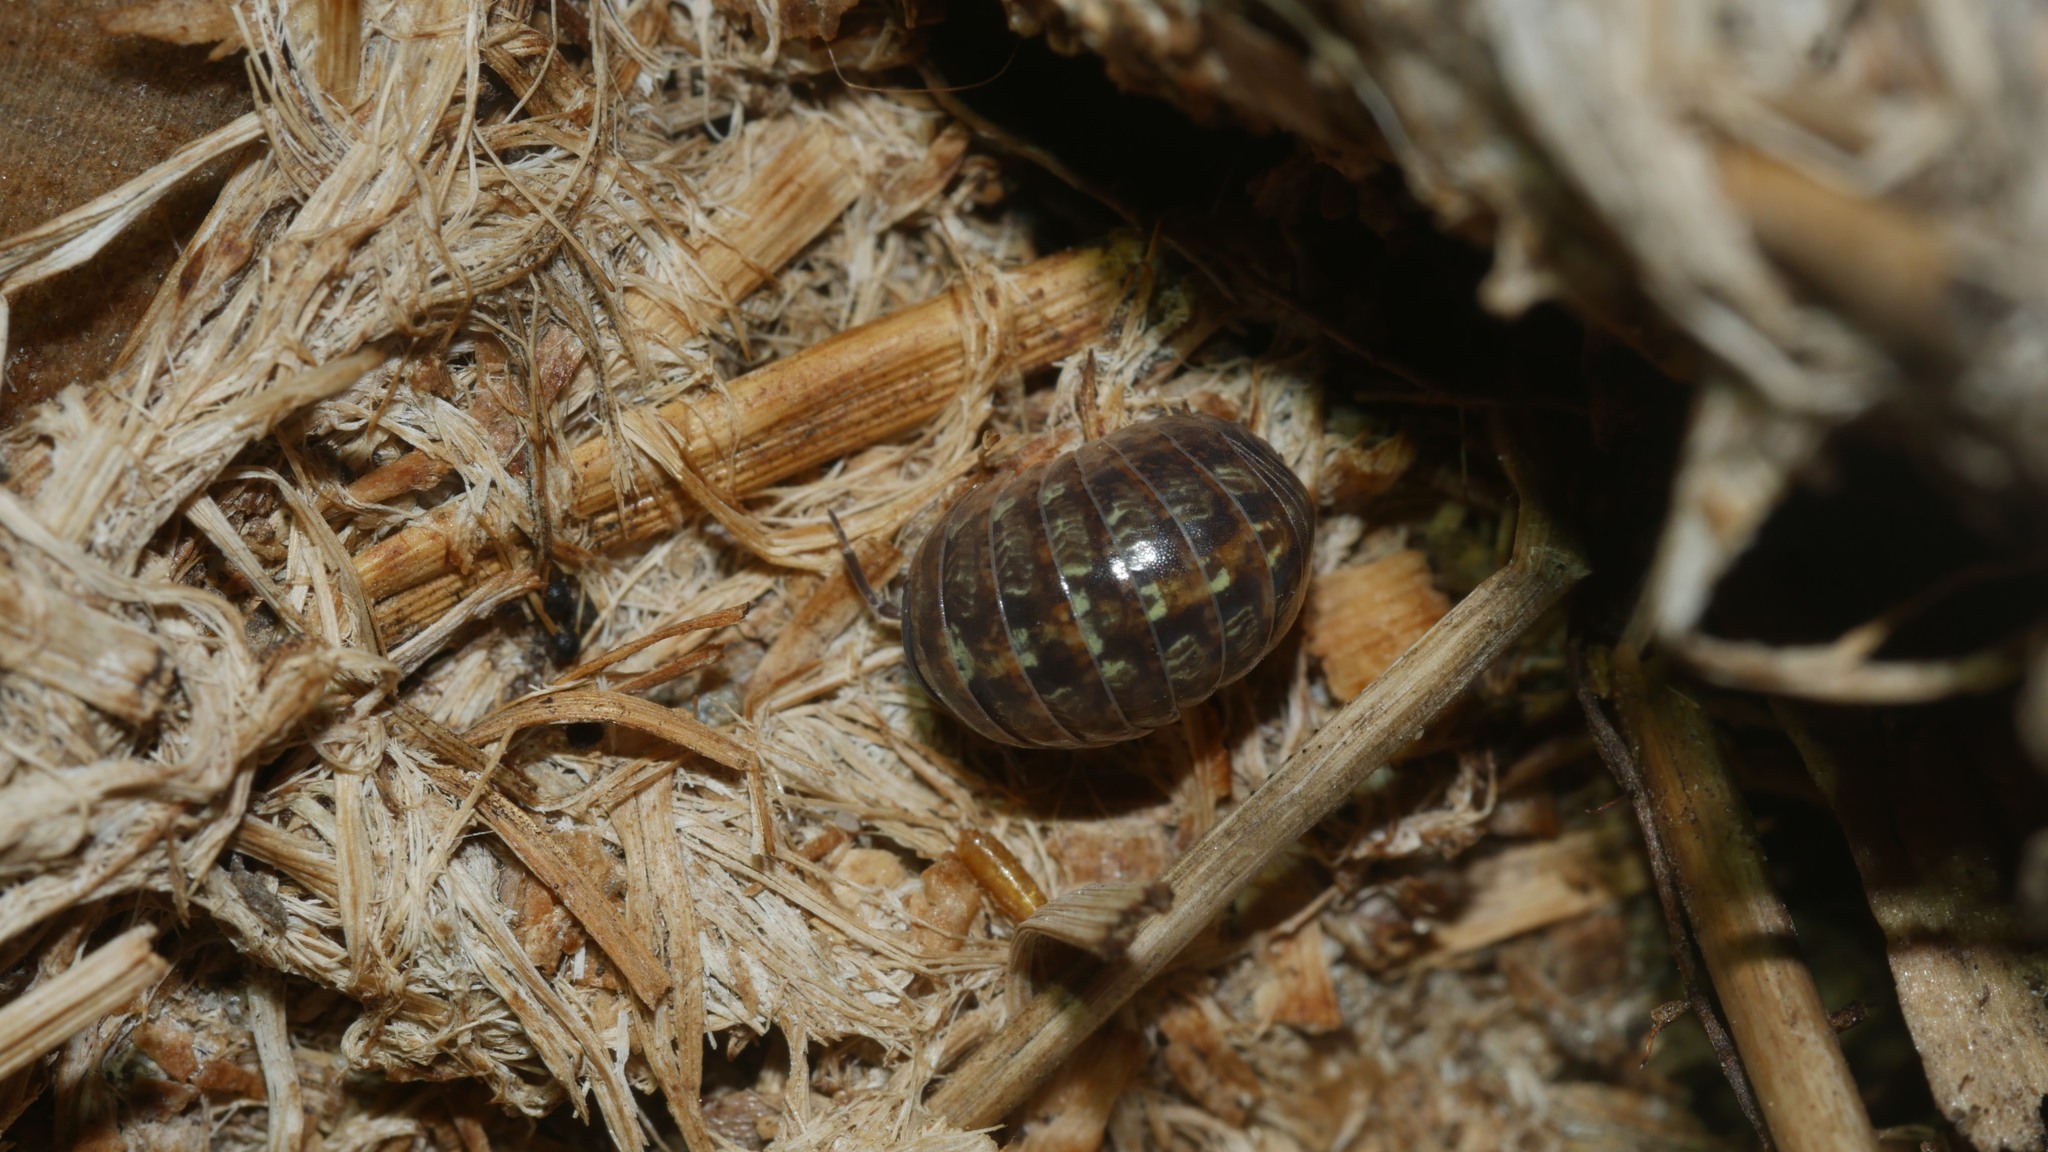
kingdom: Animalia
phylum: Arthropoda
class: Malacostraca
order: Isopoda
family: Armadillidiidae
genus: Armadillidium
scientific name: Armadillidium vulgare
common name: Common pill woodlouse
